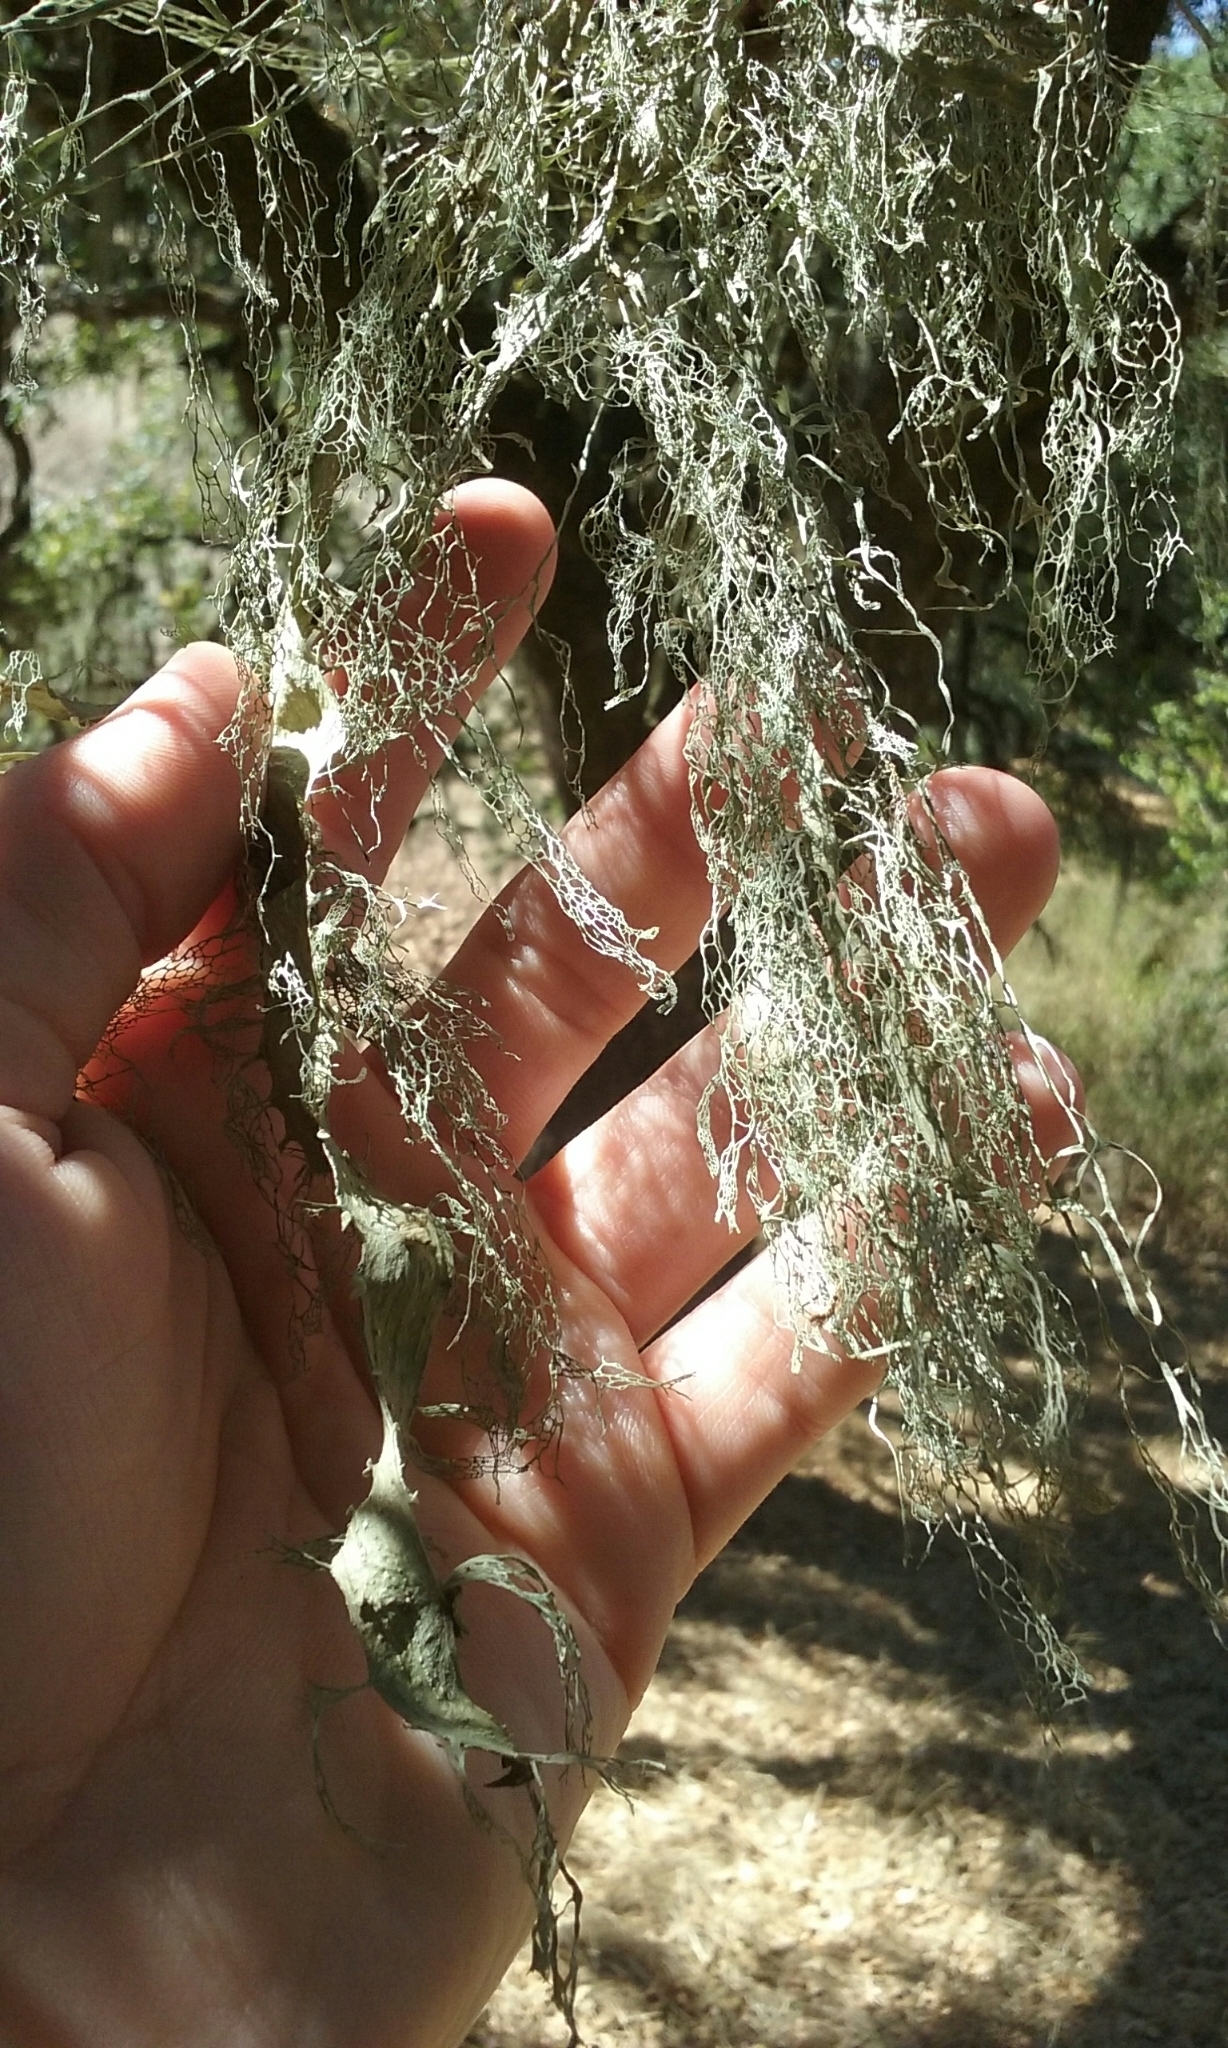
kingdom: Fungi
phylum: Ascomycota
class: Lecanoromycetes
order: Lecanorales
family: Ramalinaceae
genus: Ramalina
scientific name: Ramalina menziesii
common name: Lace lichen
